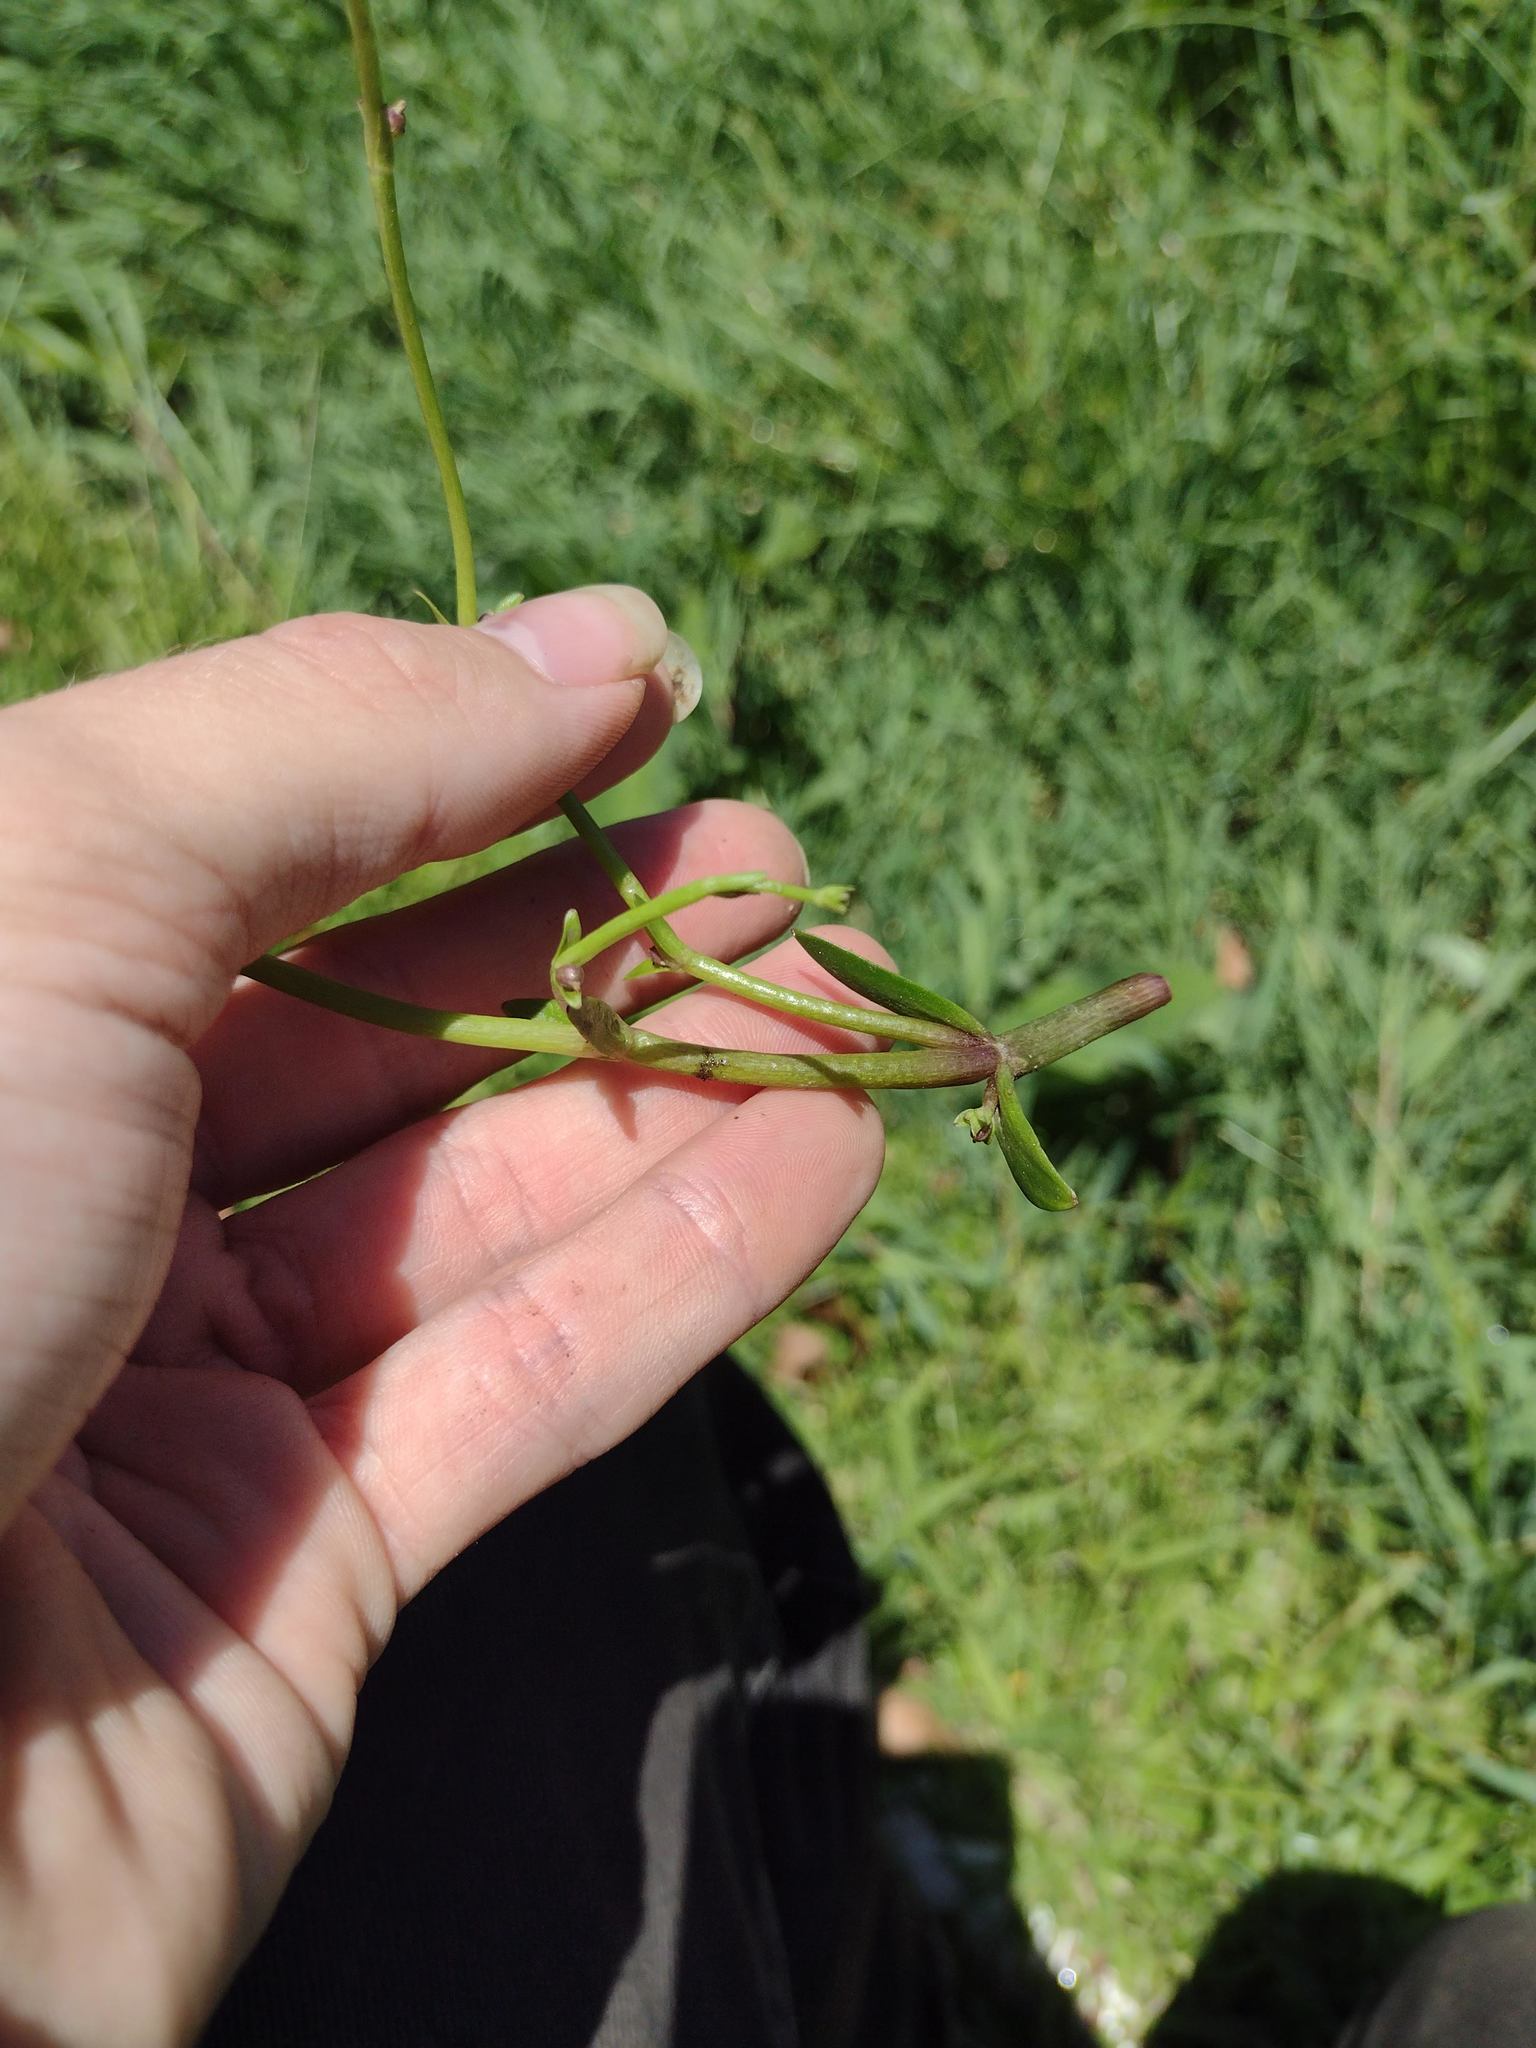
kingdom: Plantae
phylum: Tracheophyta
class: Magnoliopsida
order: Lamiales
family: Plantaginaceae
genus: Dopatrium
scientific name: Dopatrium junceum
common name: Horsefly's eye
